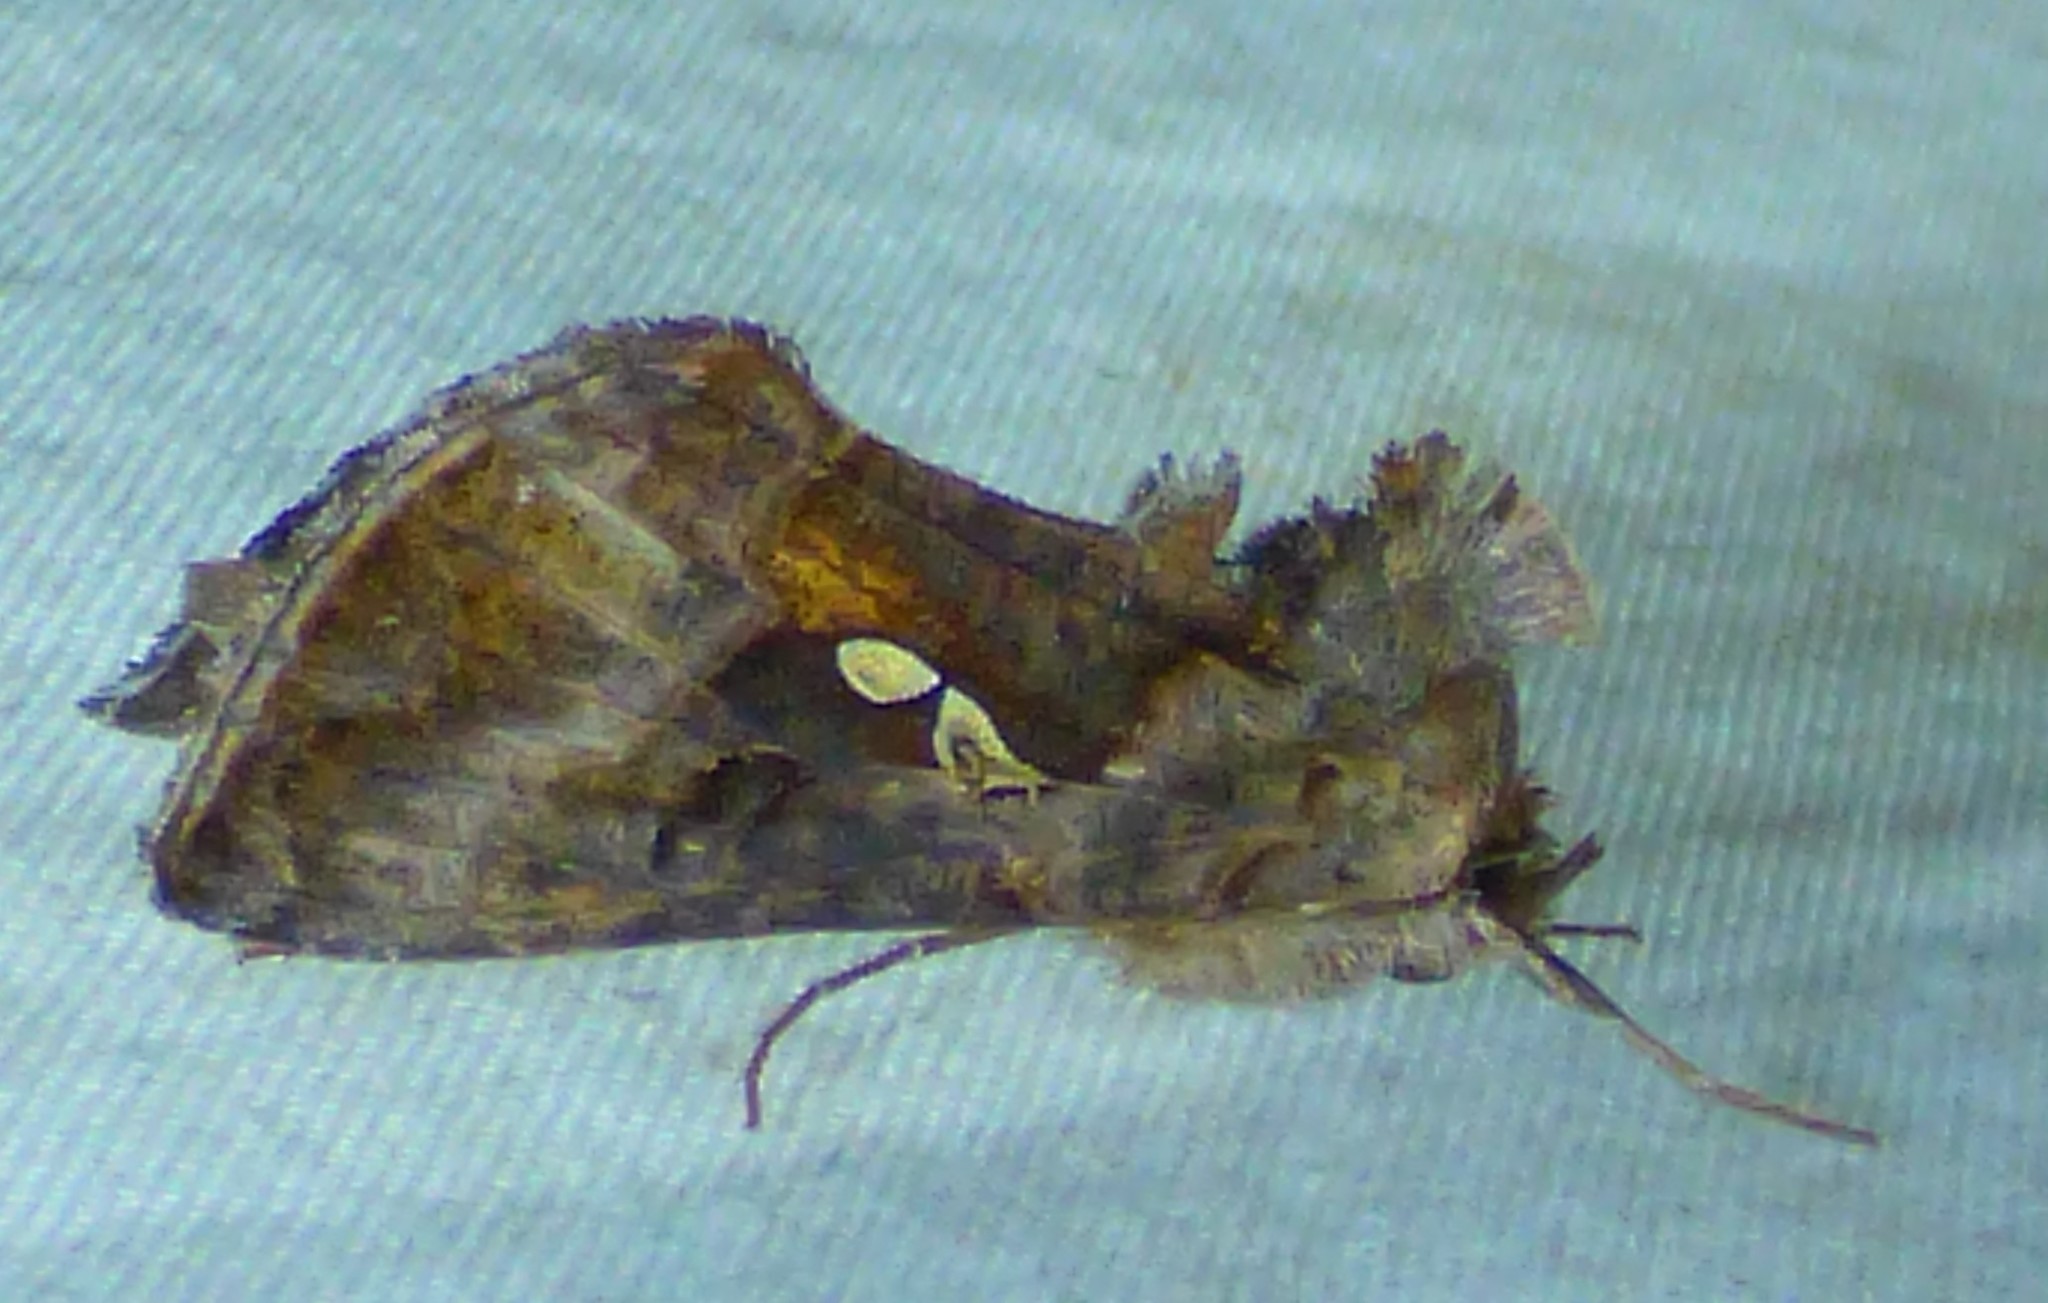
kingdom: Animalia
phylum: Arthropoda
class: Insecta
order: Lepidoptera
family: Noctuidae
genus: Autographa
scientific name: Autographa precationis
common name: Common looper moth
